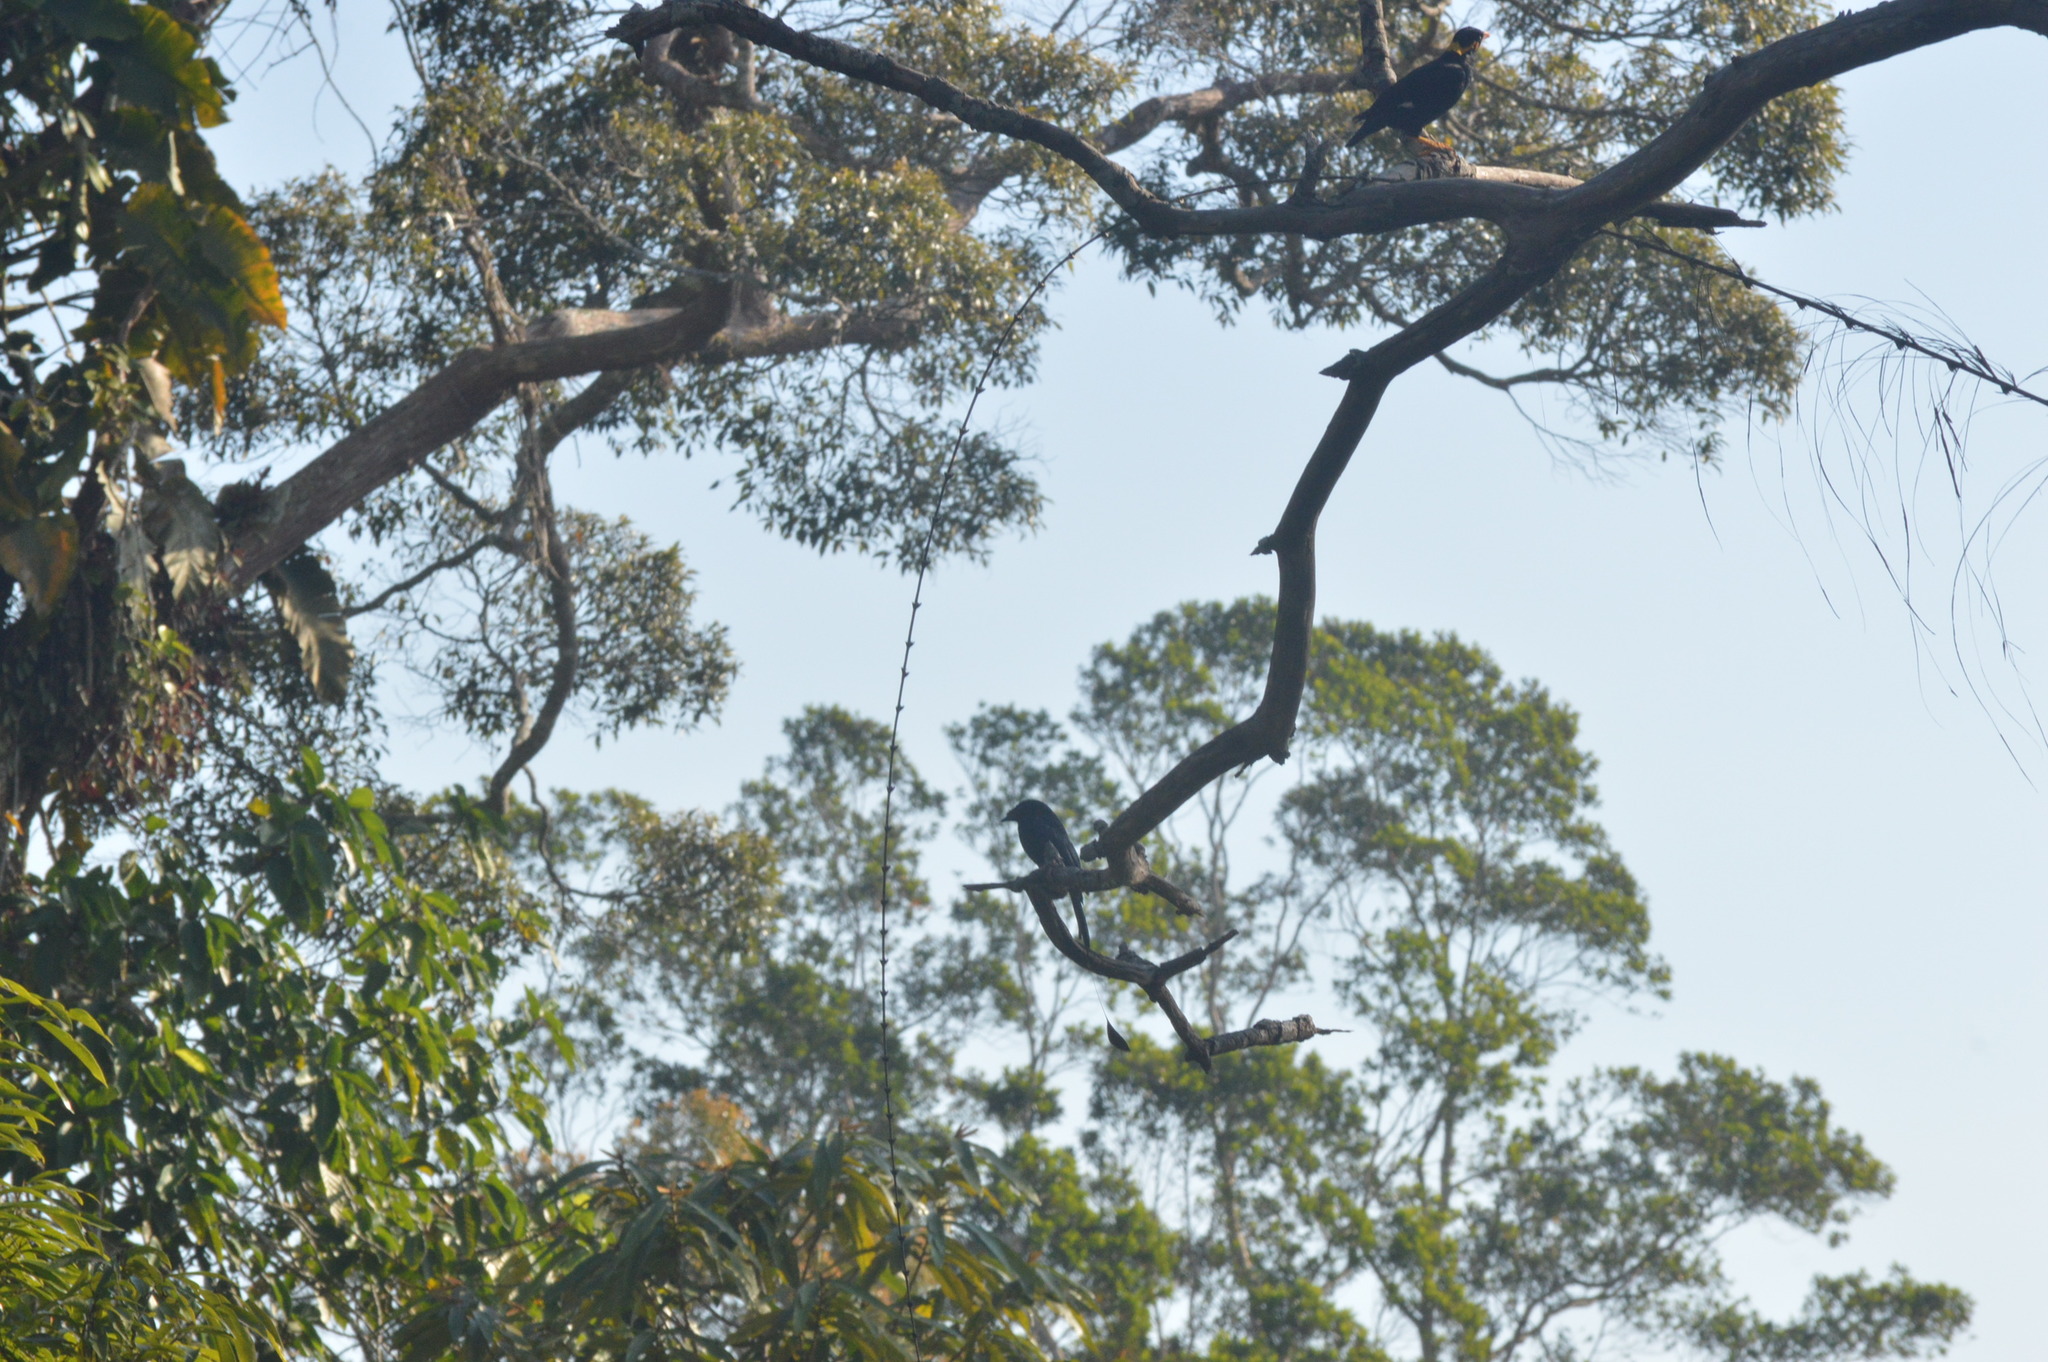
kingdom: Animalia
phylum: Chordata
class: Aves
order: Passeriformes
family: Dicruridae
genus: Dicrurus
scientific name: Dicrurus paradiseus
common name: Greater racket-tailed drongo
